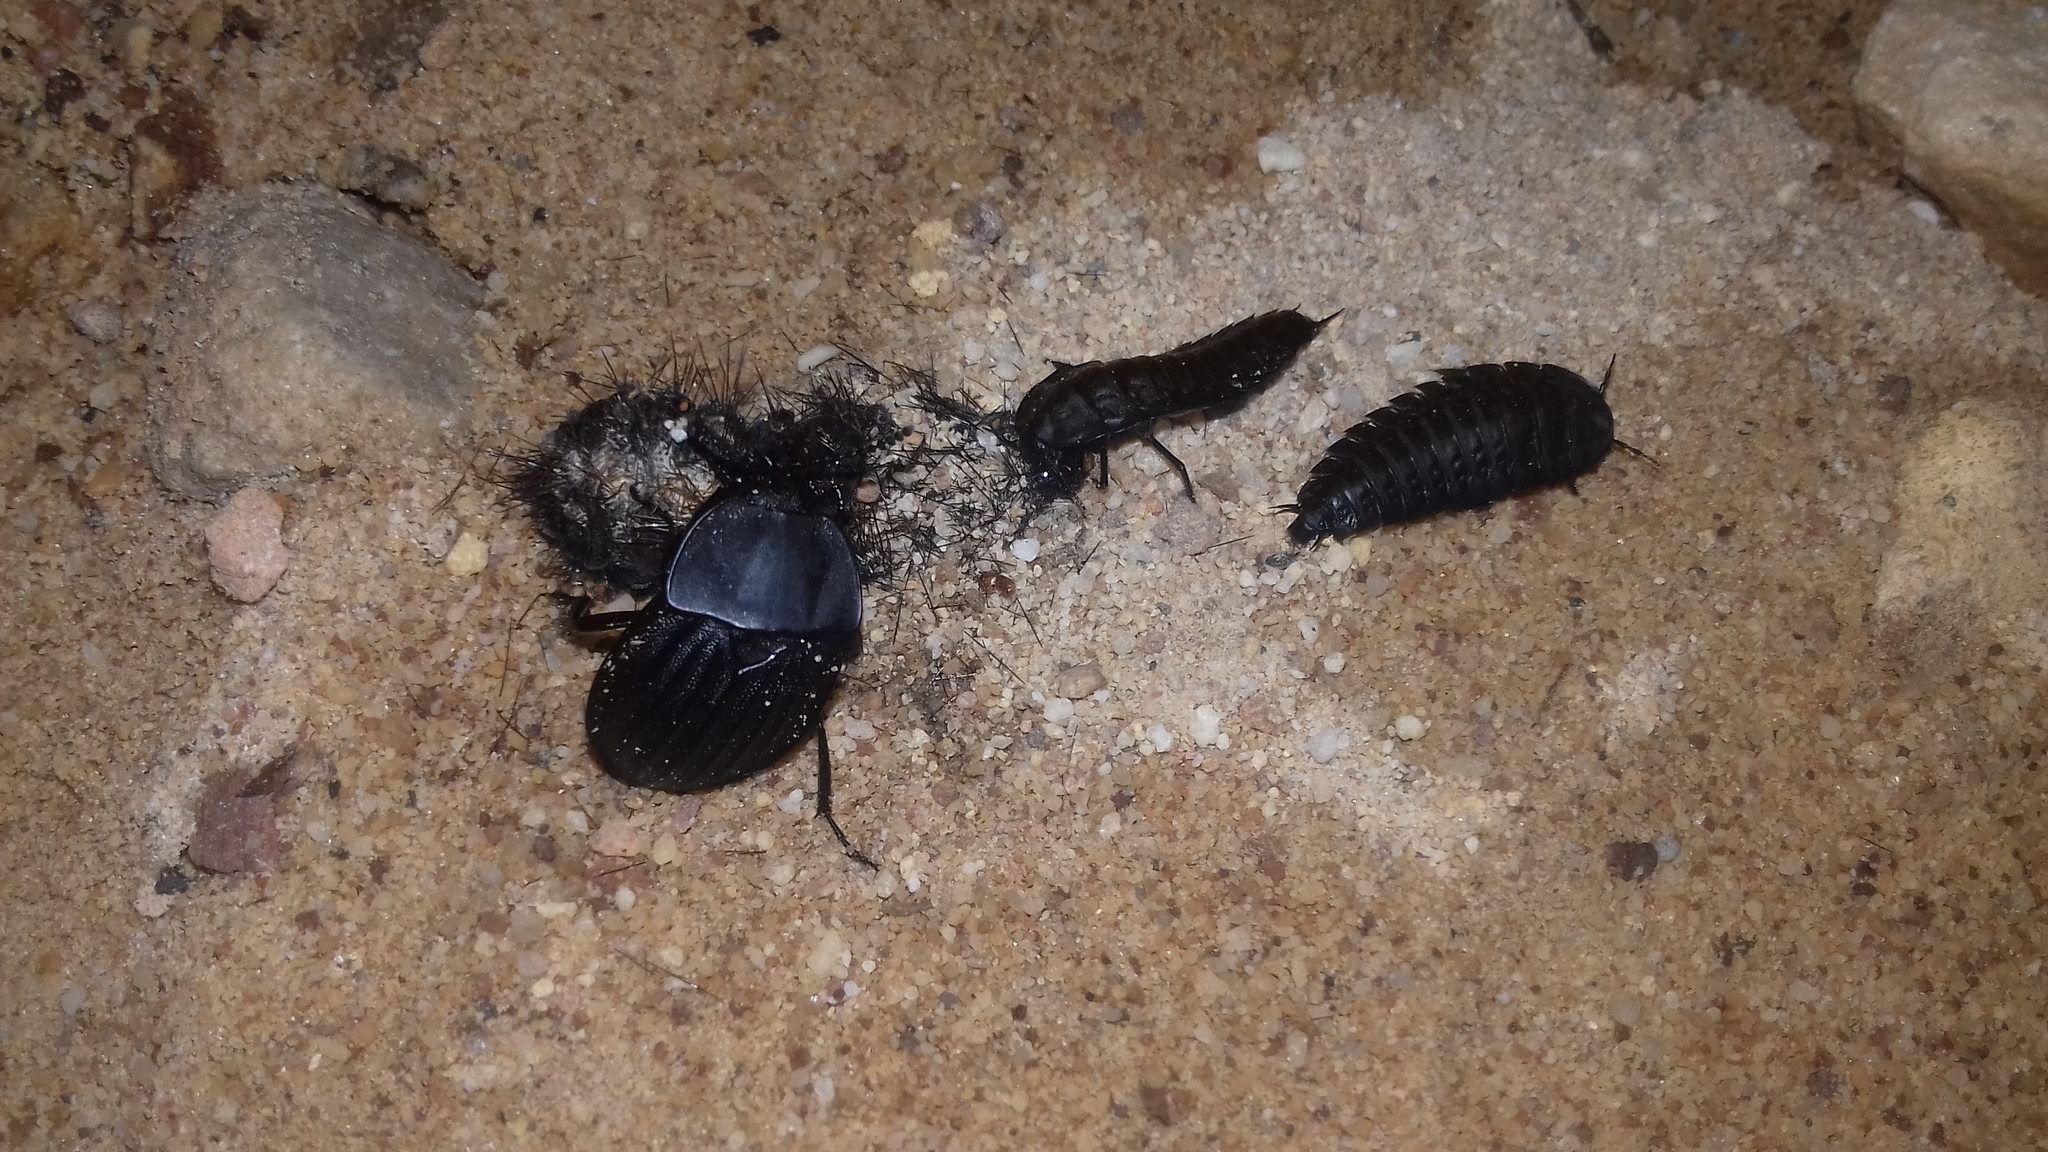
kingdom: Animalia
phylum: Arthropoda
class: Insecta
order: Coleoptera
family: Staphylinidae
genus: Silpha
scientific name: Silpha capicola
